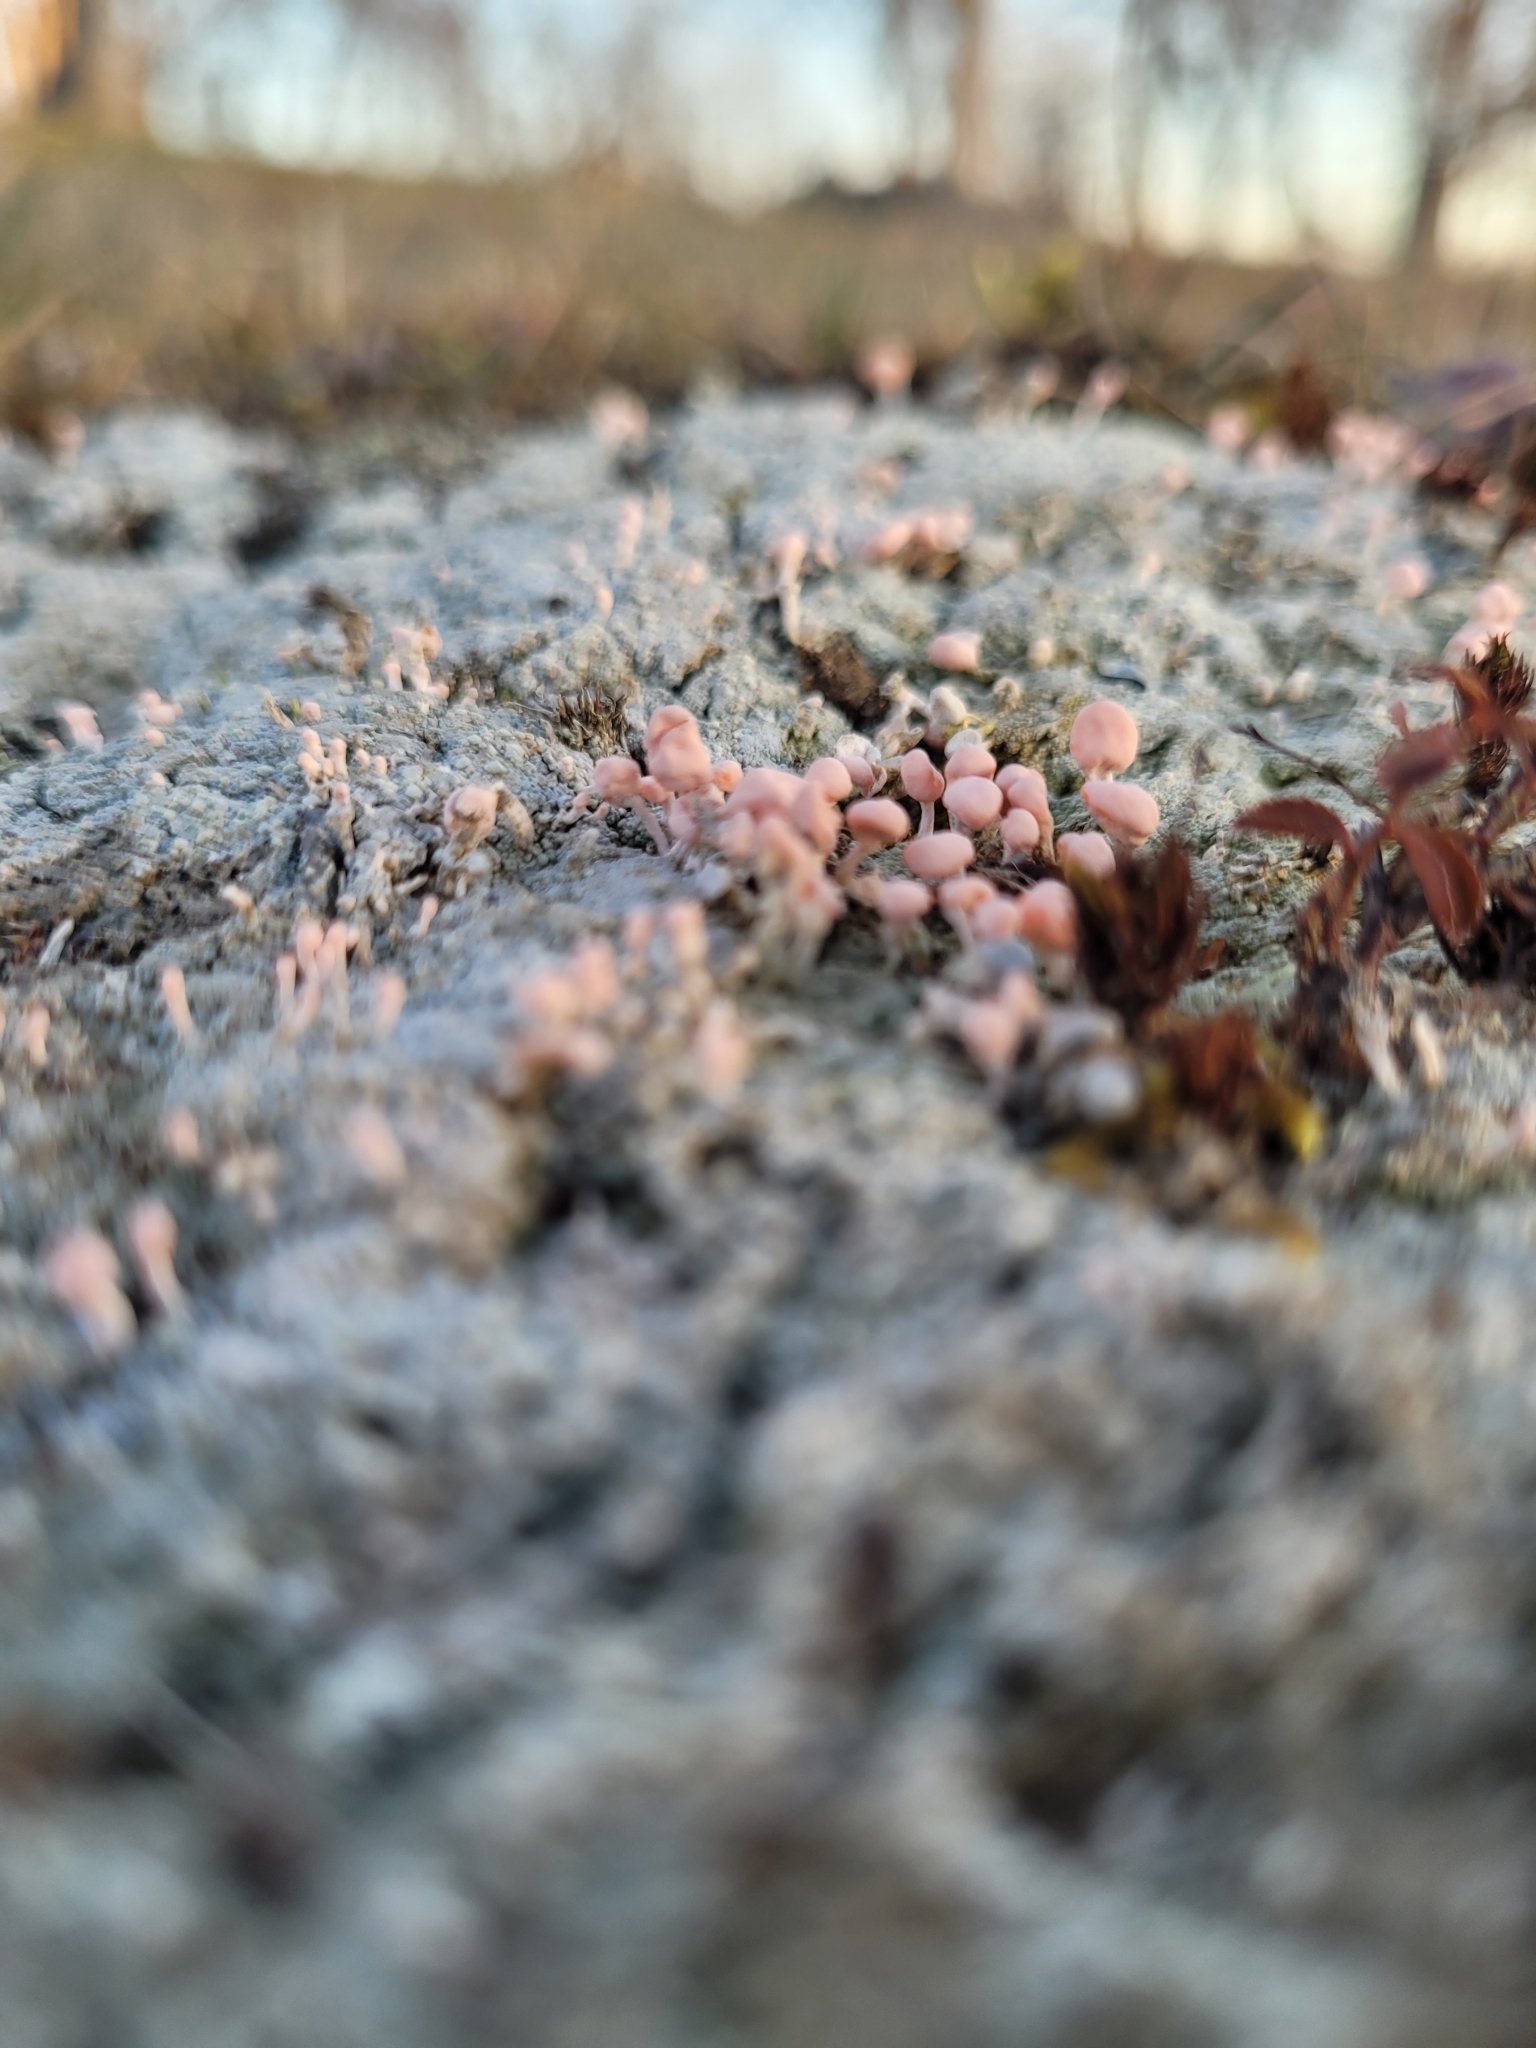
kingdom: Fungi
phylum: Ascomycota
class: Lecanoromycetes
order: Pertusariales
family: Icmadophilaceae
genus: Dibaeis
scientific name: Dibaeis baeomyces
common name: Pink earth lichen
